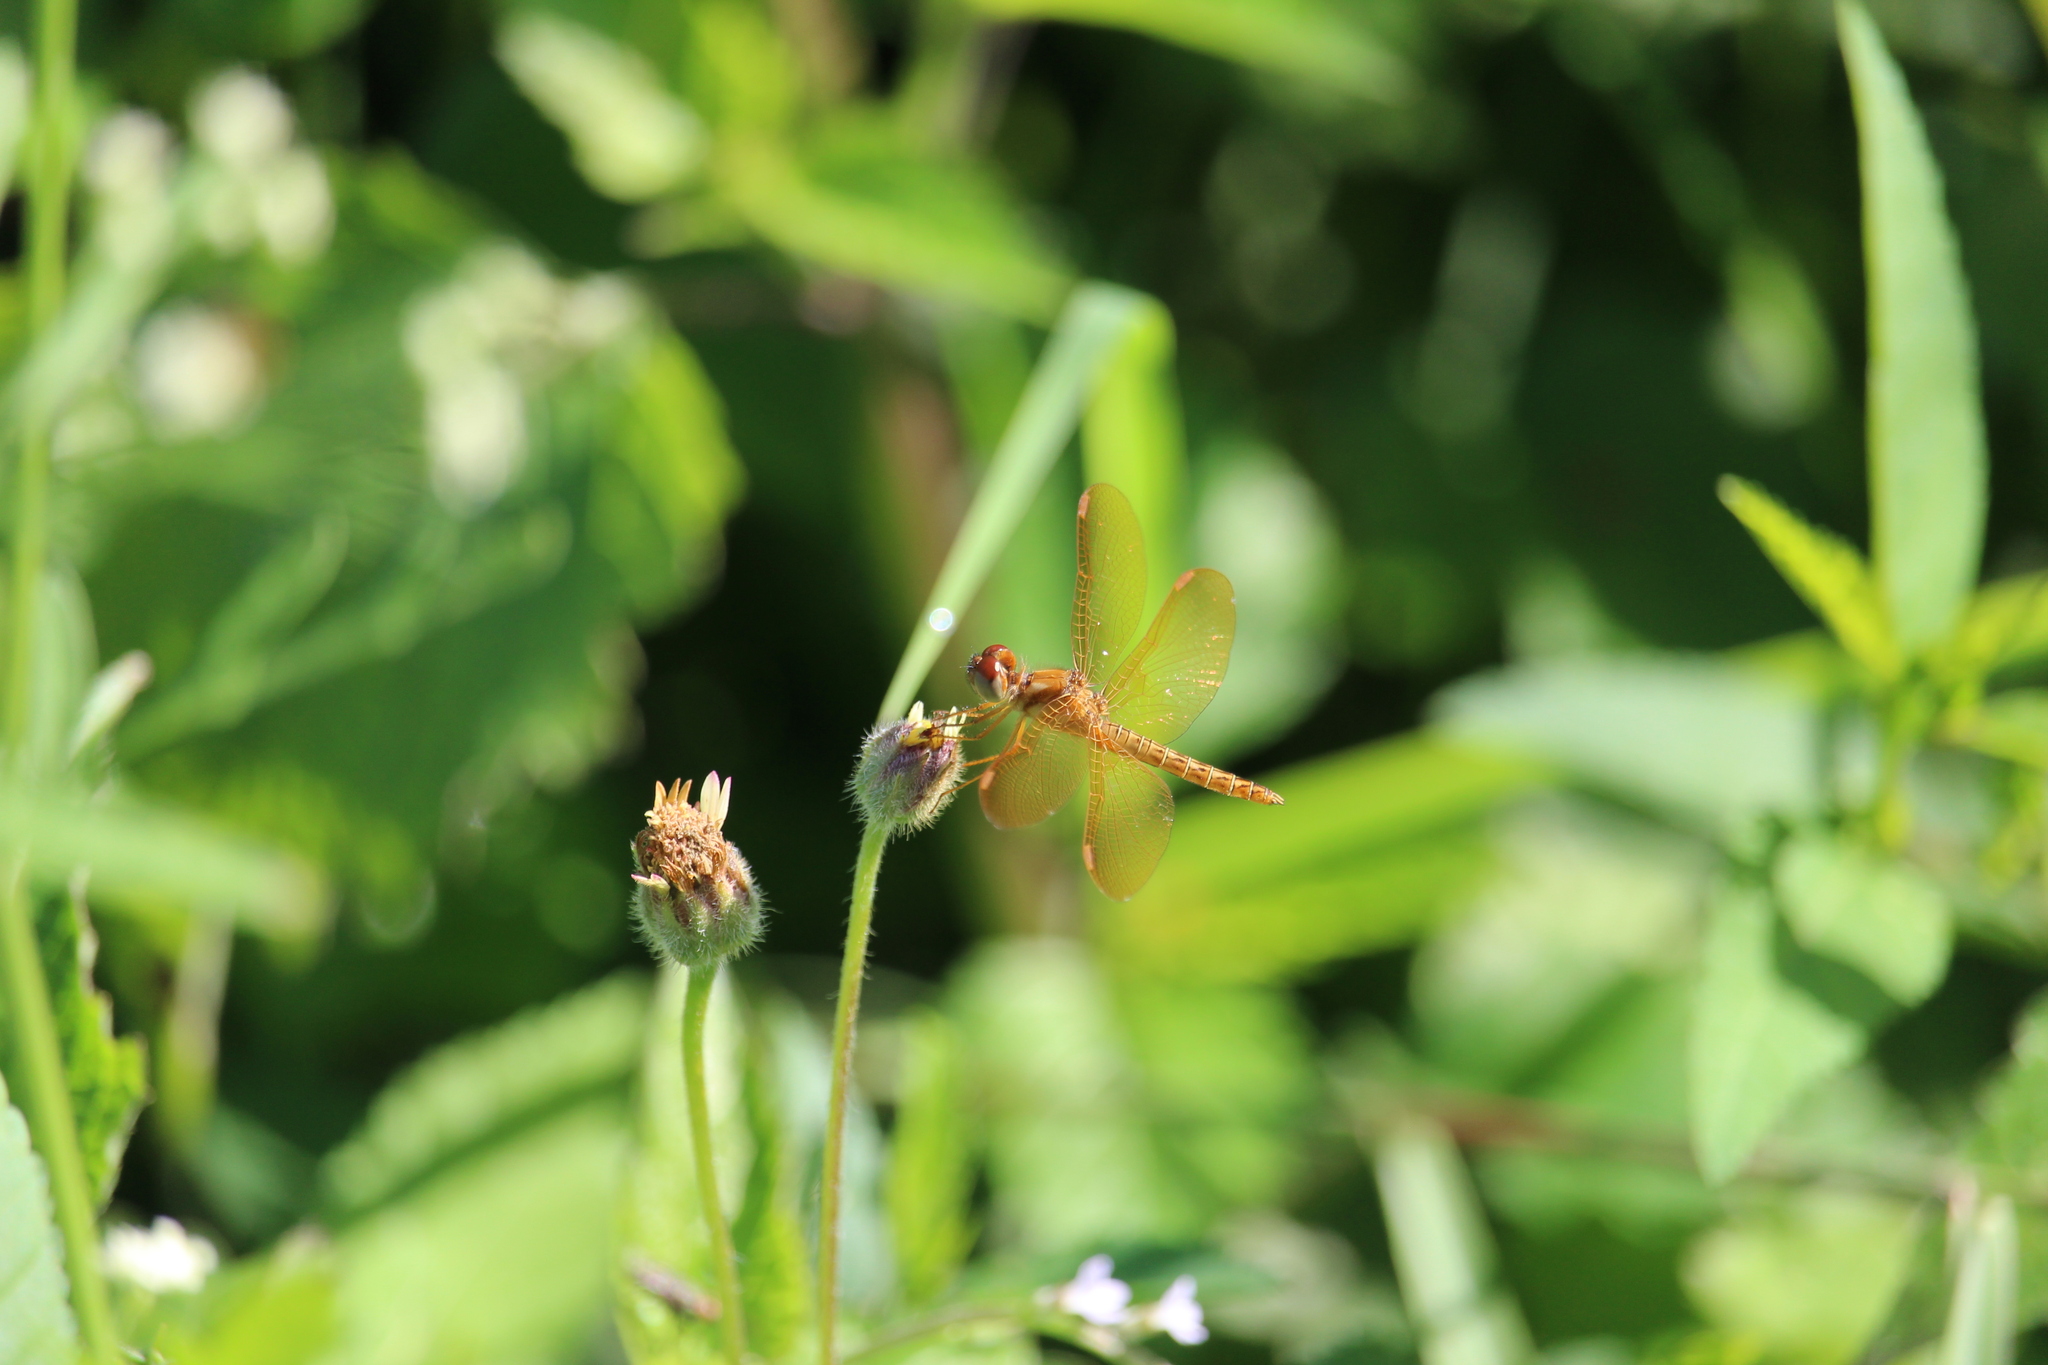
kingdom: Animalia
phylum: Arthropoda
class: Insecta
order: Odonata
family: Libellulidae
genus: Perithemis
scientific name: Perithemis tenera
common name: Eastern amberwing
